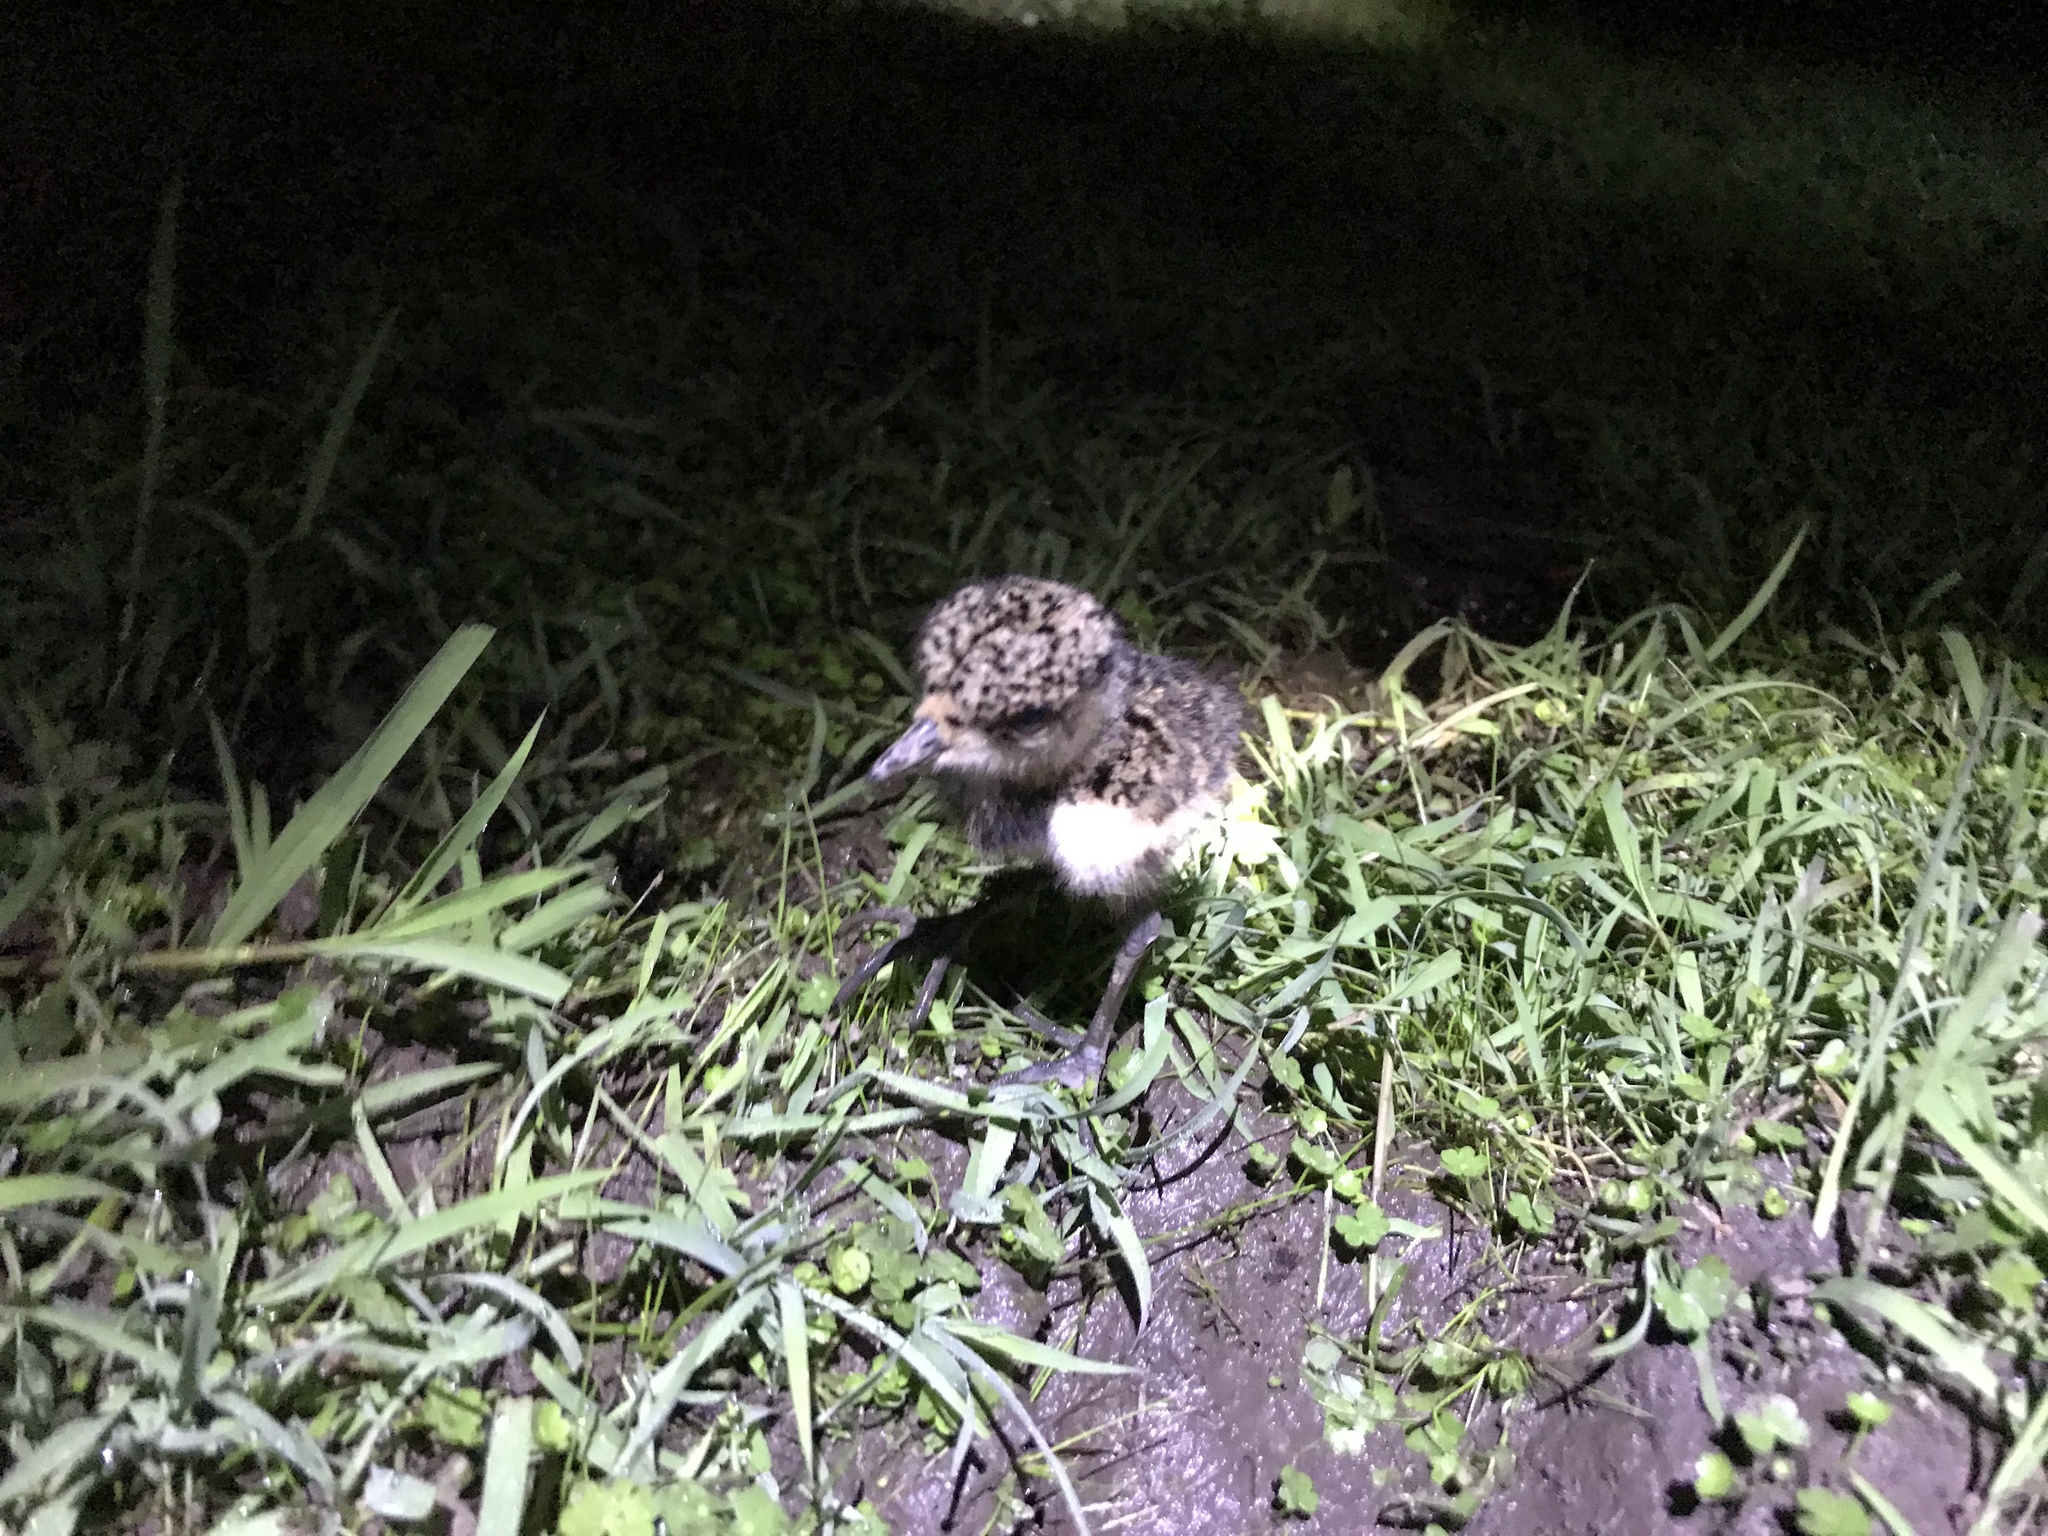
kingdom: Animalia
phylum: Chordata
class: Aves
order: Charadriiformes
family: Charadriidae
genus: Vanellus
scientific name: Vanellus chilensis
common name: Southern lapwing
